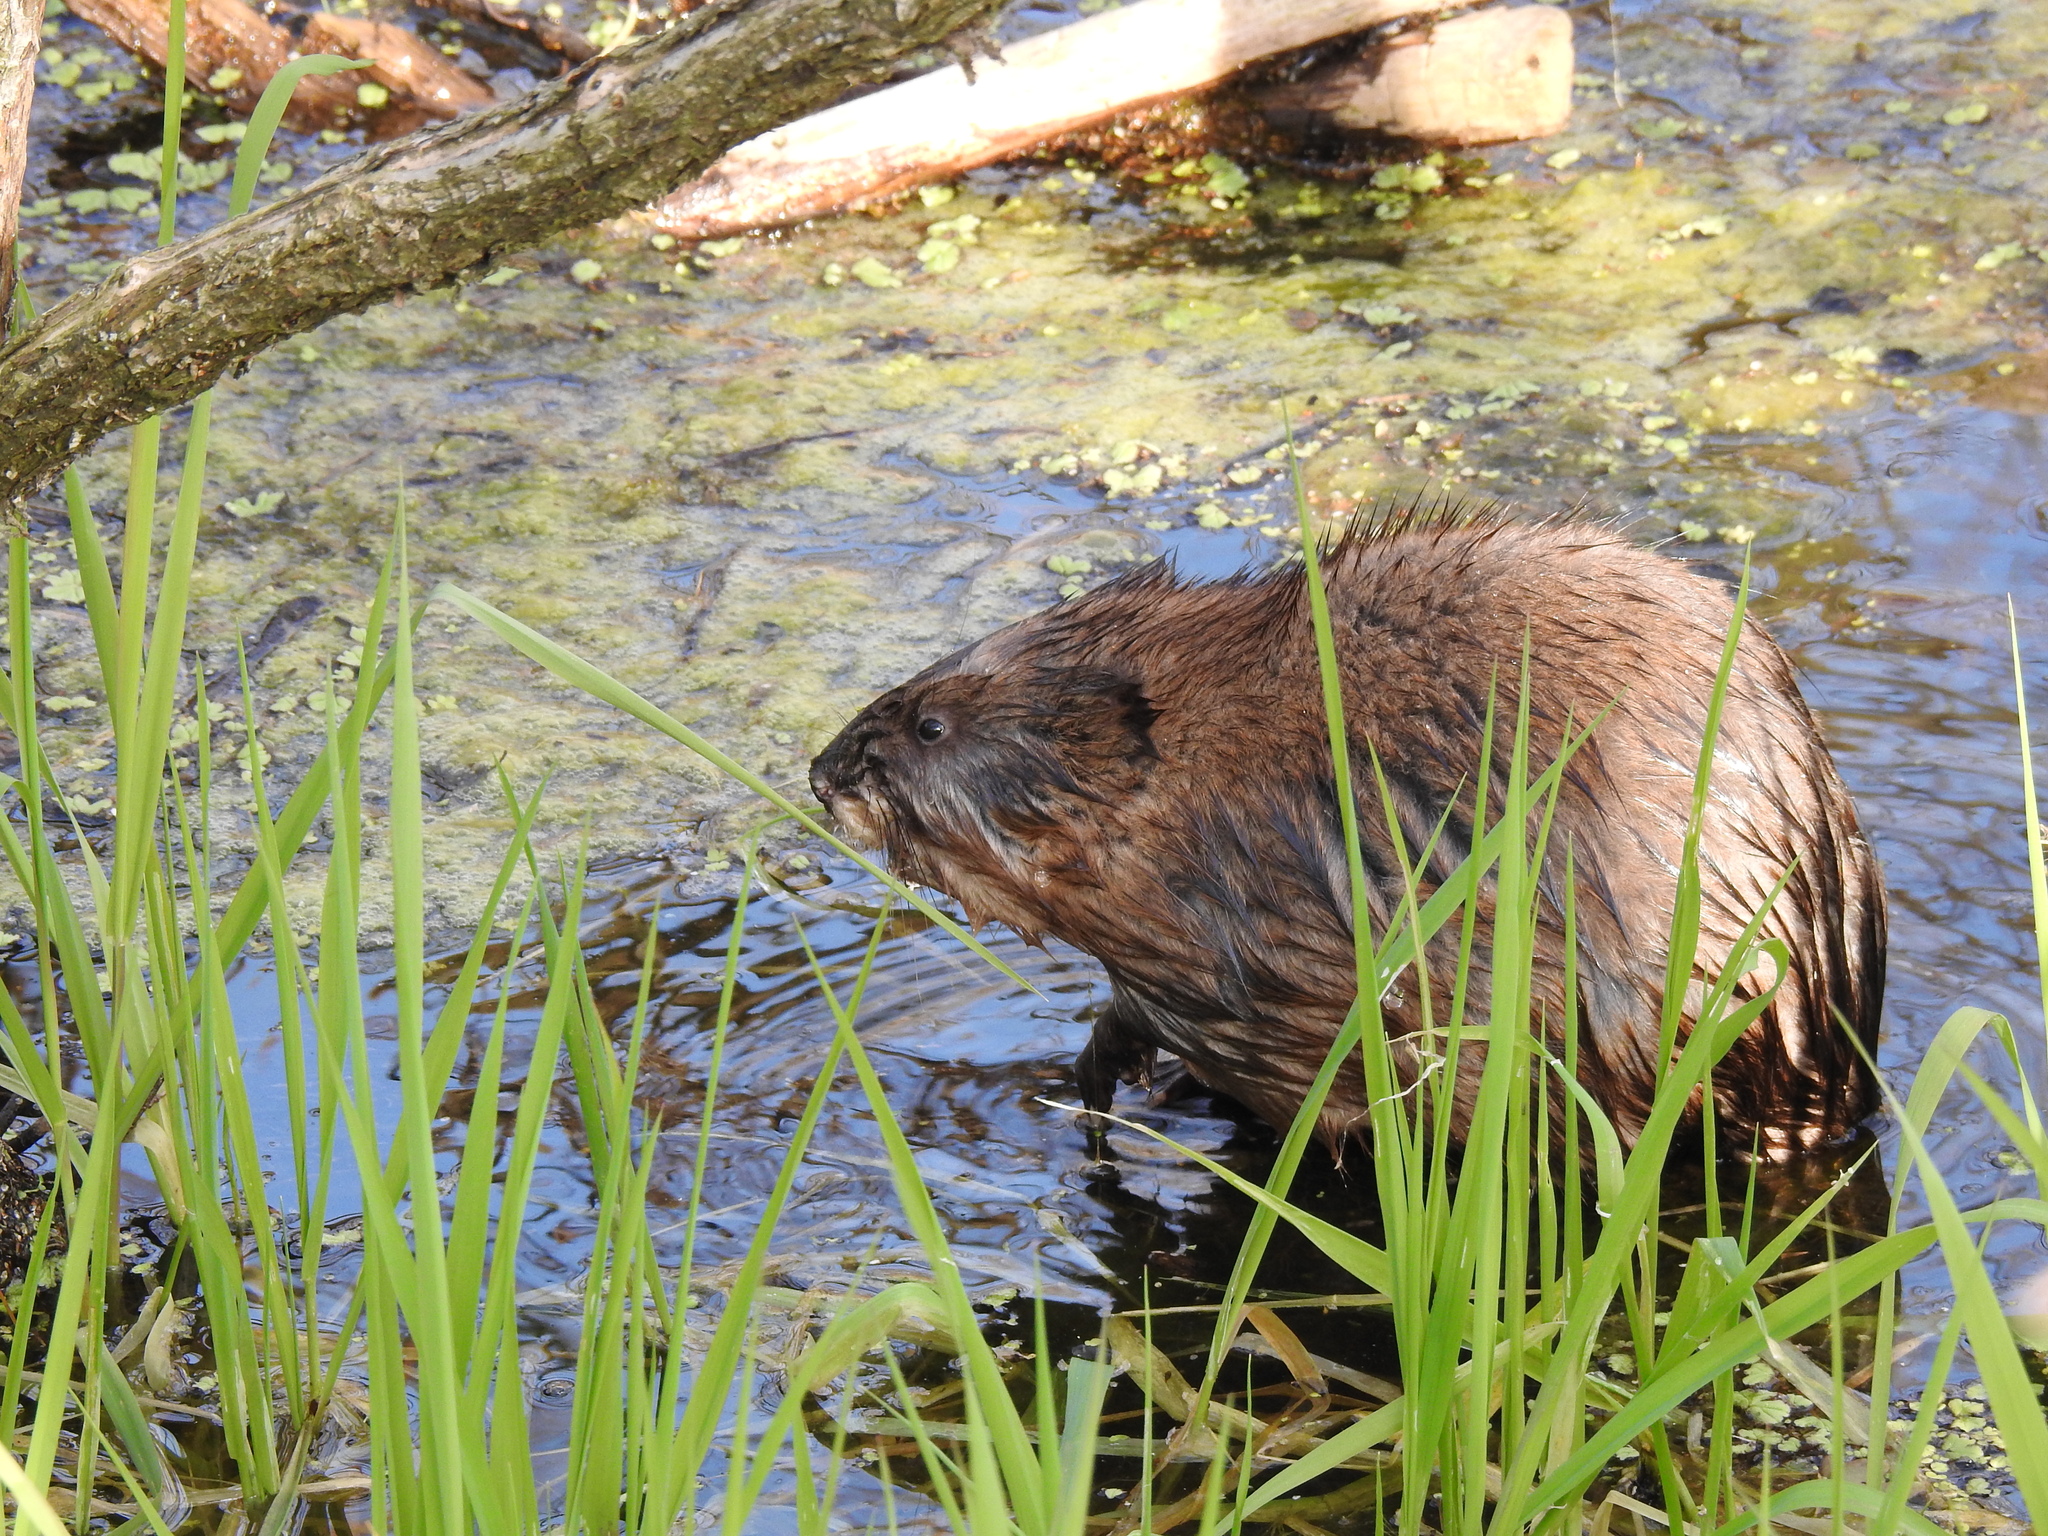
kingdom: Animalia
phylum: Chordata
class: Mammalia
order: Rodentia
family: Cricetidae
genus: Ondatra
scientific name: Ondatra zibethicus
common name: Muskrat
